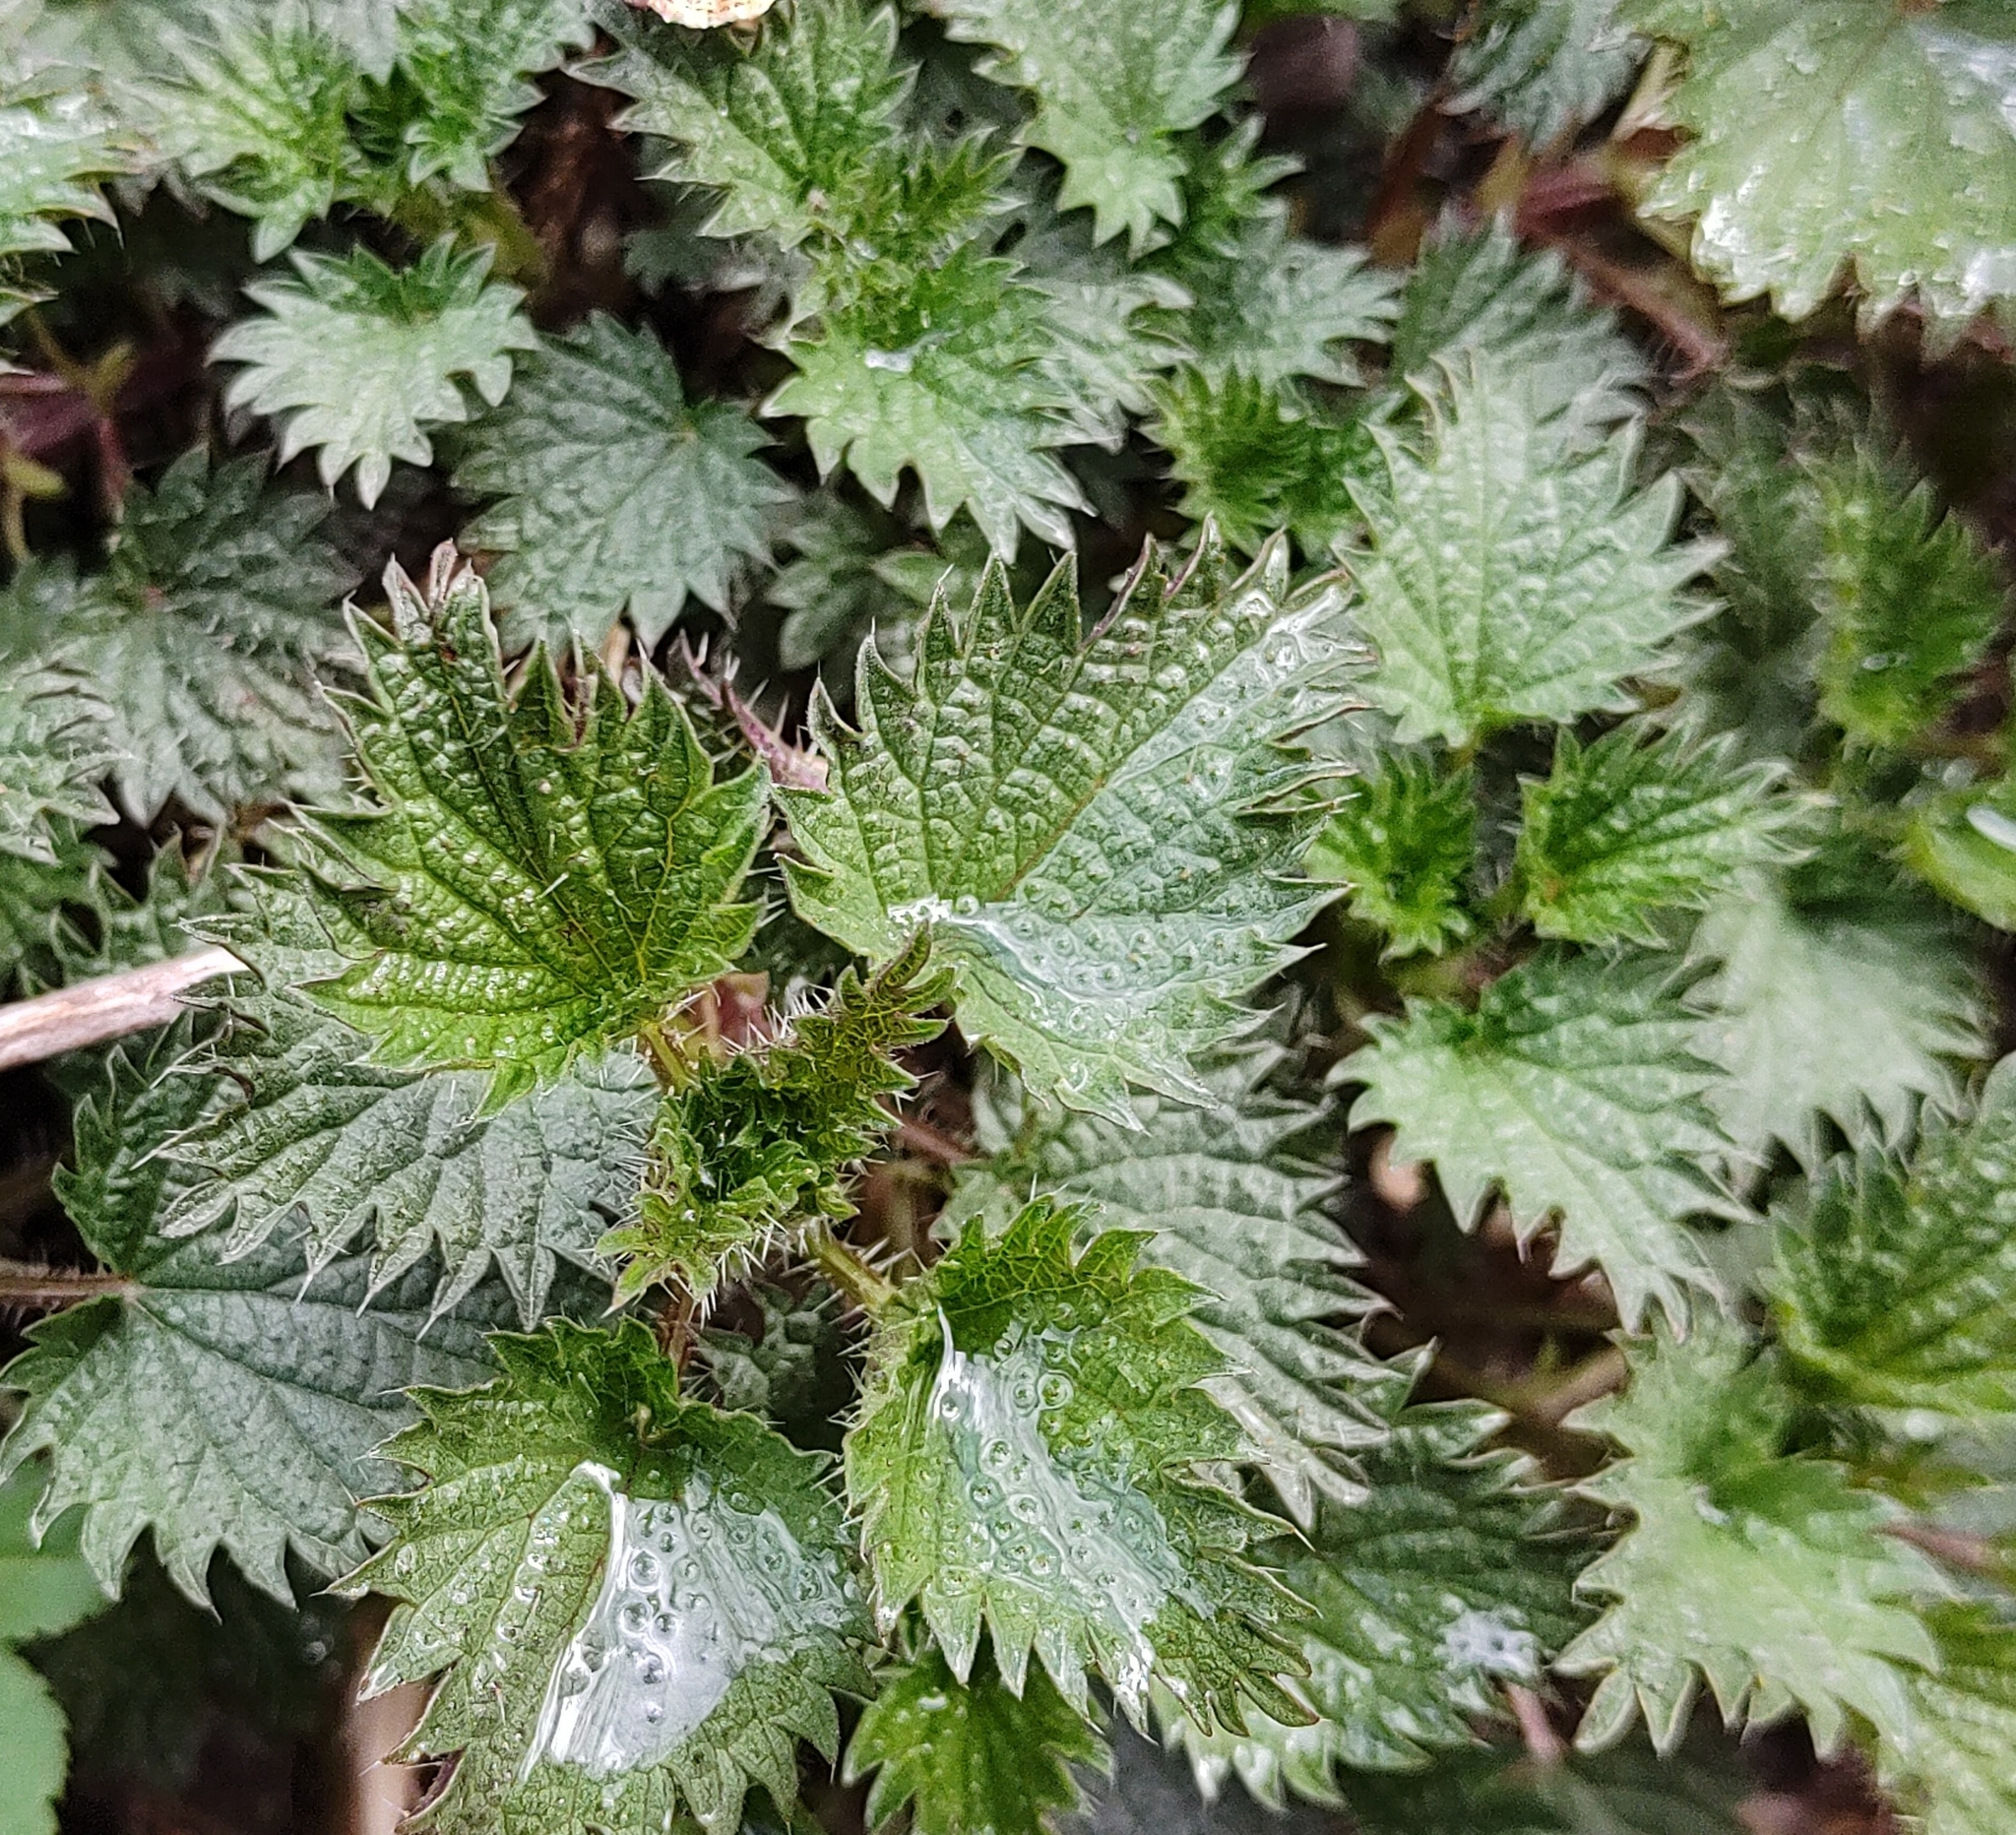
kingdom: Plantae
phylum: Tracheophyta
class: Magnoliopsida
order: Rosales
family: Urticaceae
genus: Urtica
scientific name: Urtica dioica
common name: Common nettle
